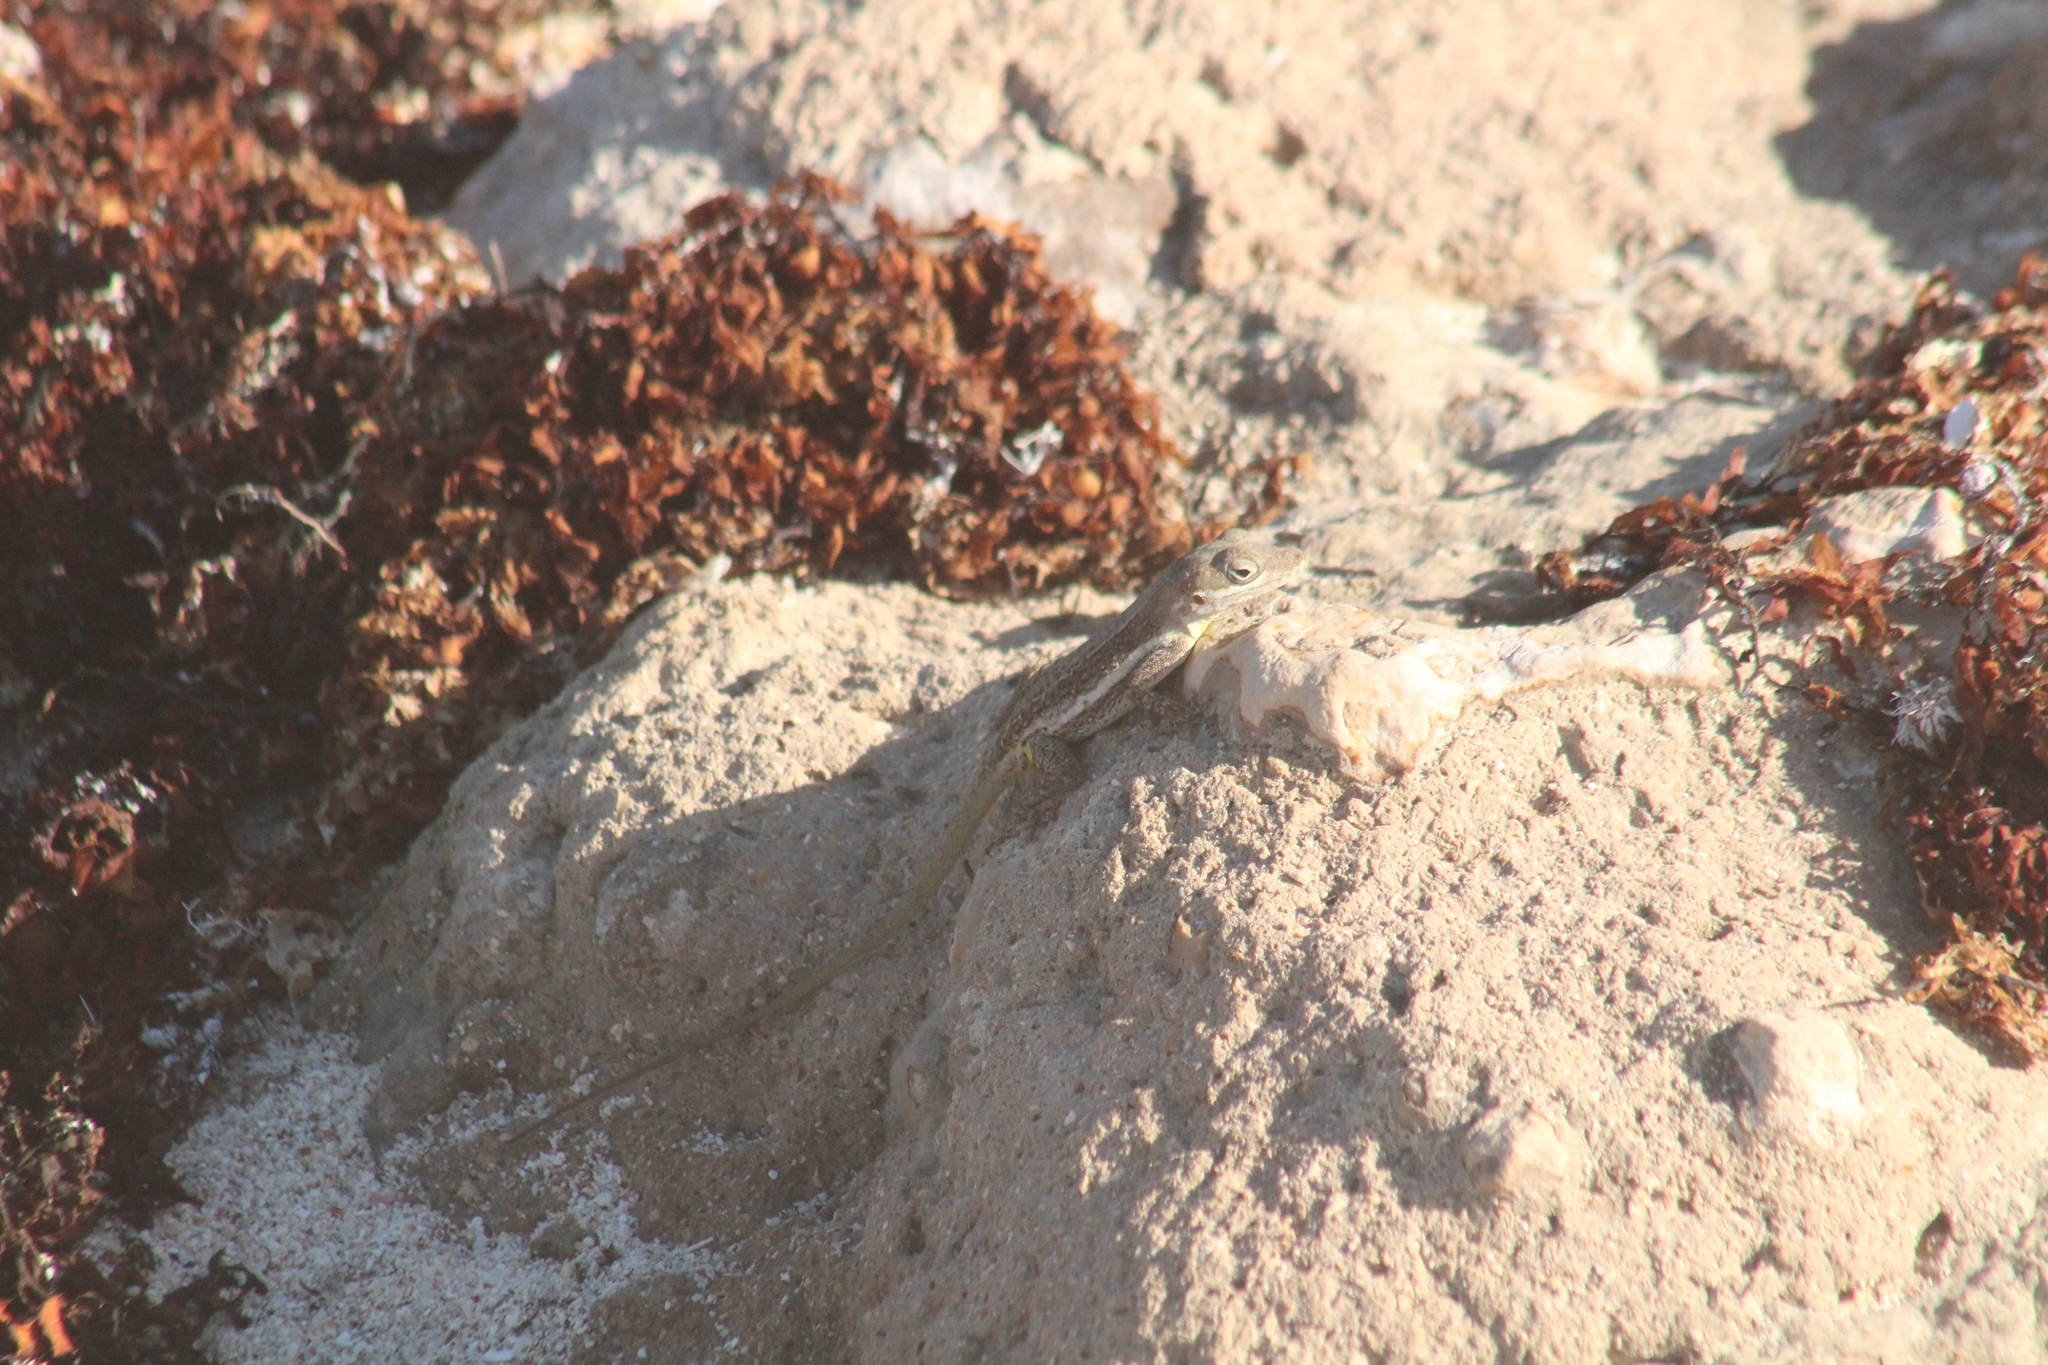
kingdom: Animalia
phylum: Chordata
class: Squamata
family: Dactyloidae
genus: Anolis
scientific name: Anolis gingivinus
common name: Anguilla anole
